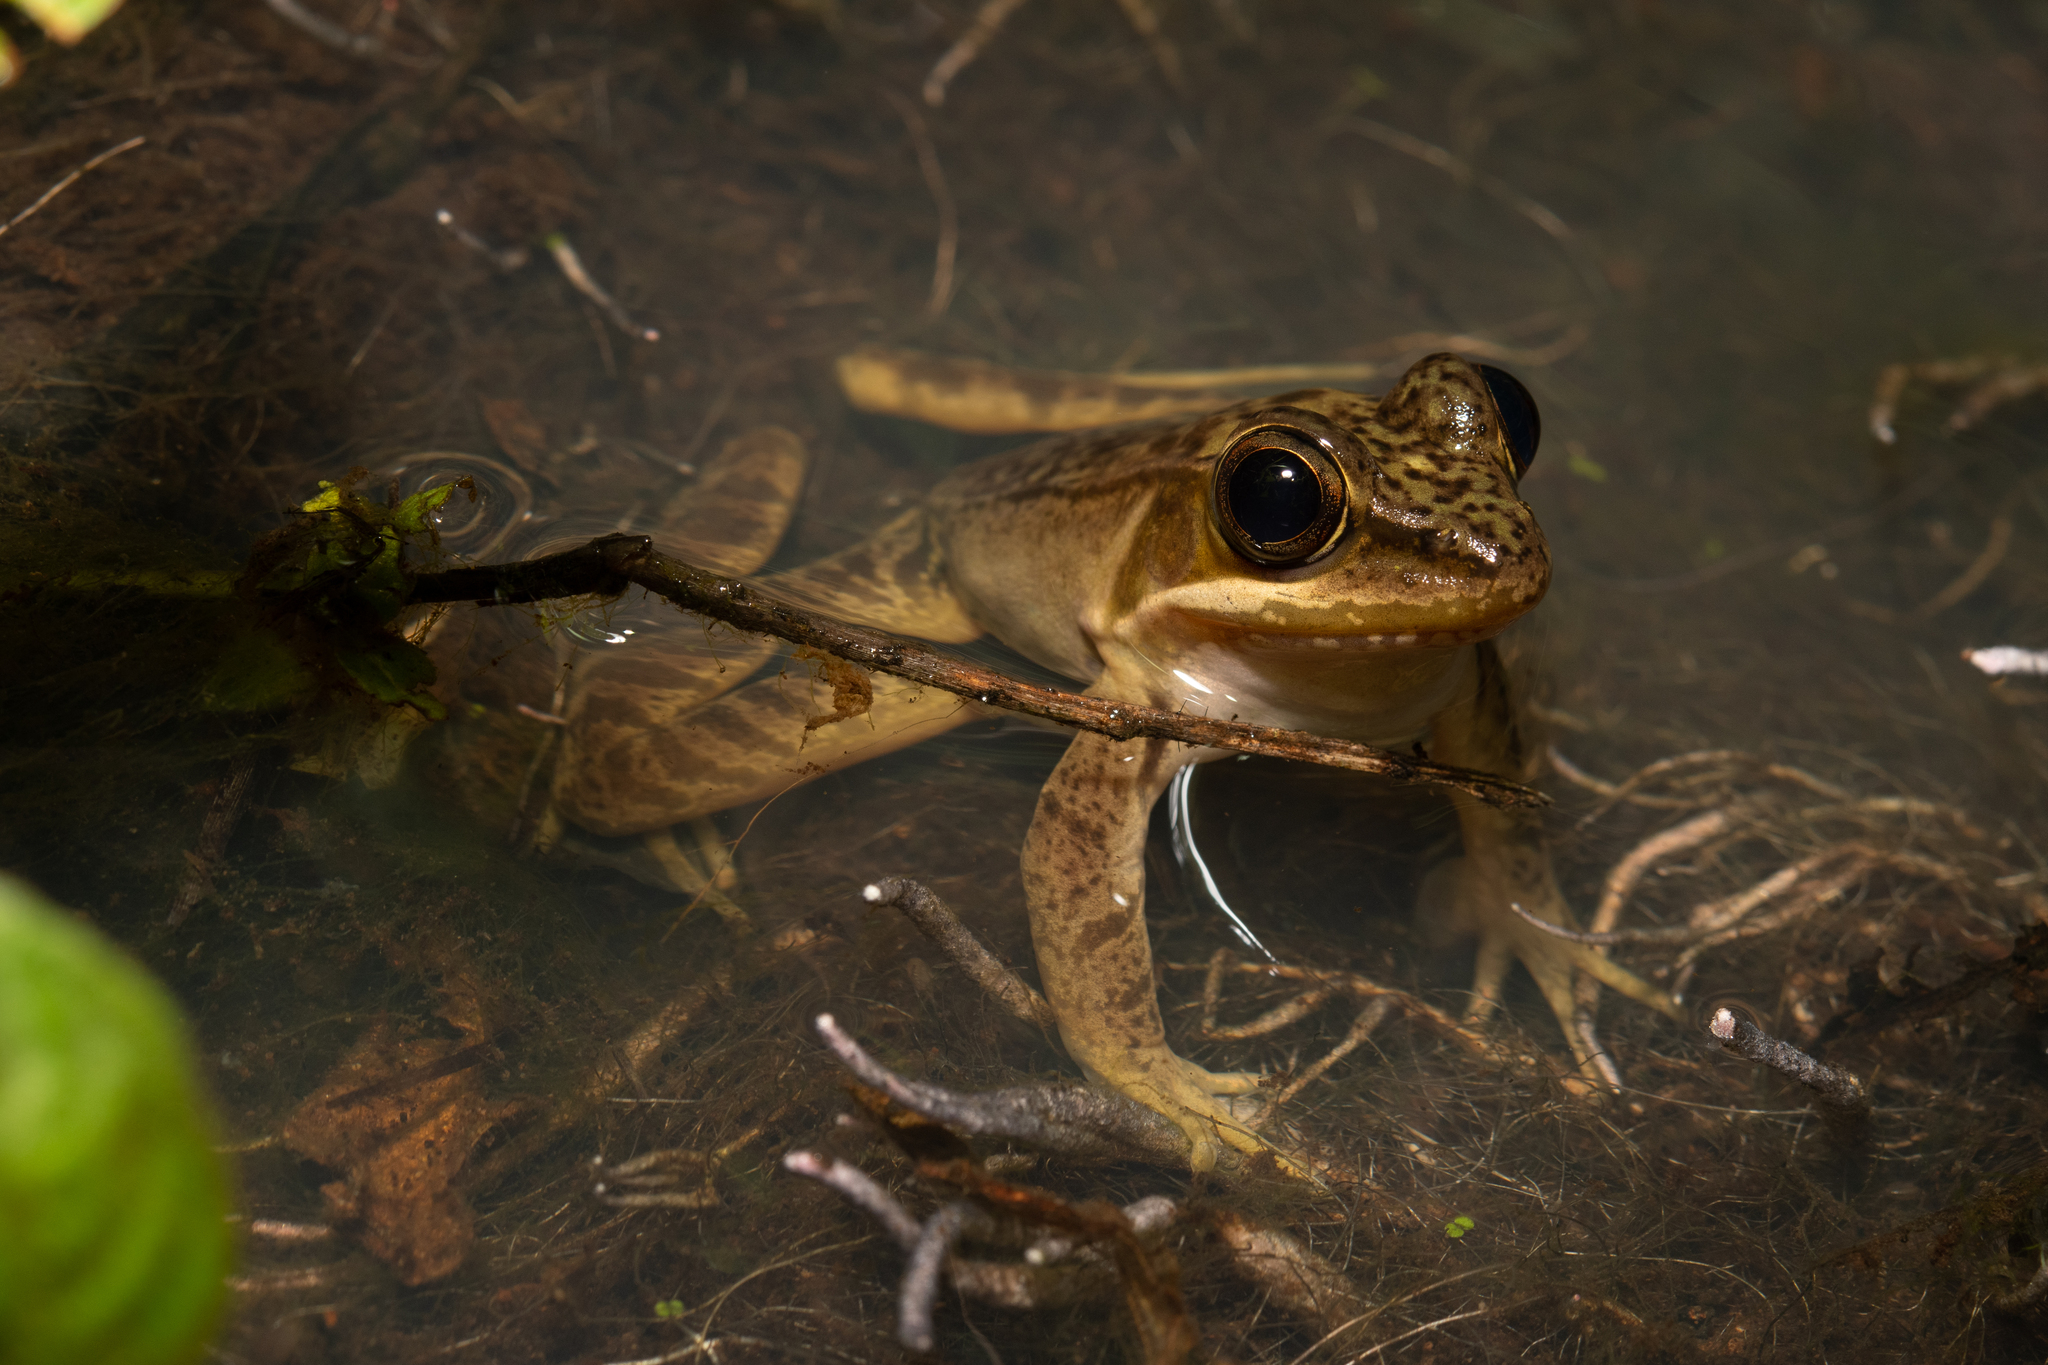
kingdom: Animalia
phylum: Chordata
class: Amphibia
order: Anura
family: Ranidae
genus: Lithobates
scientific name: Lithobates maculatus
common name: Highland frog
